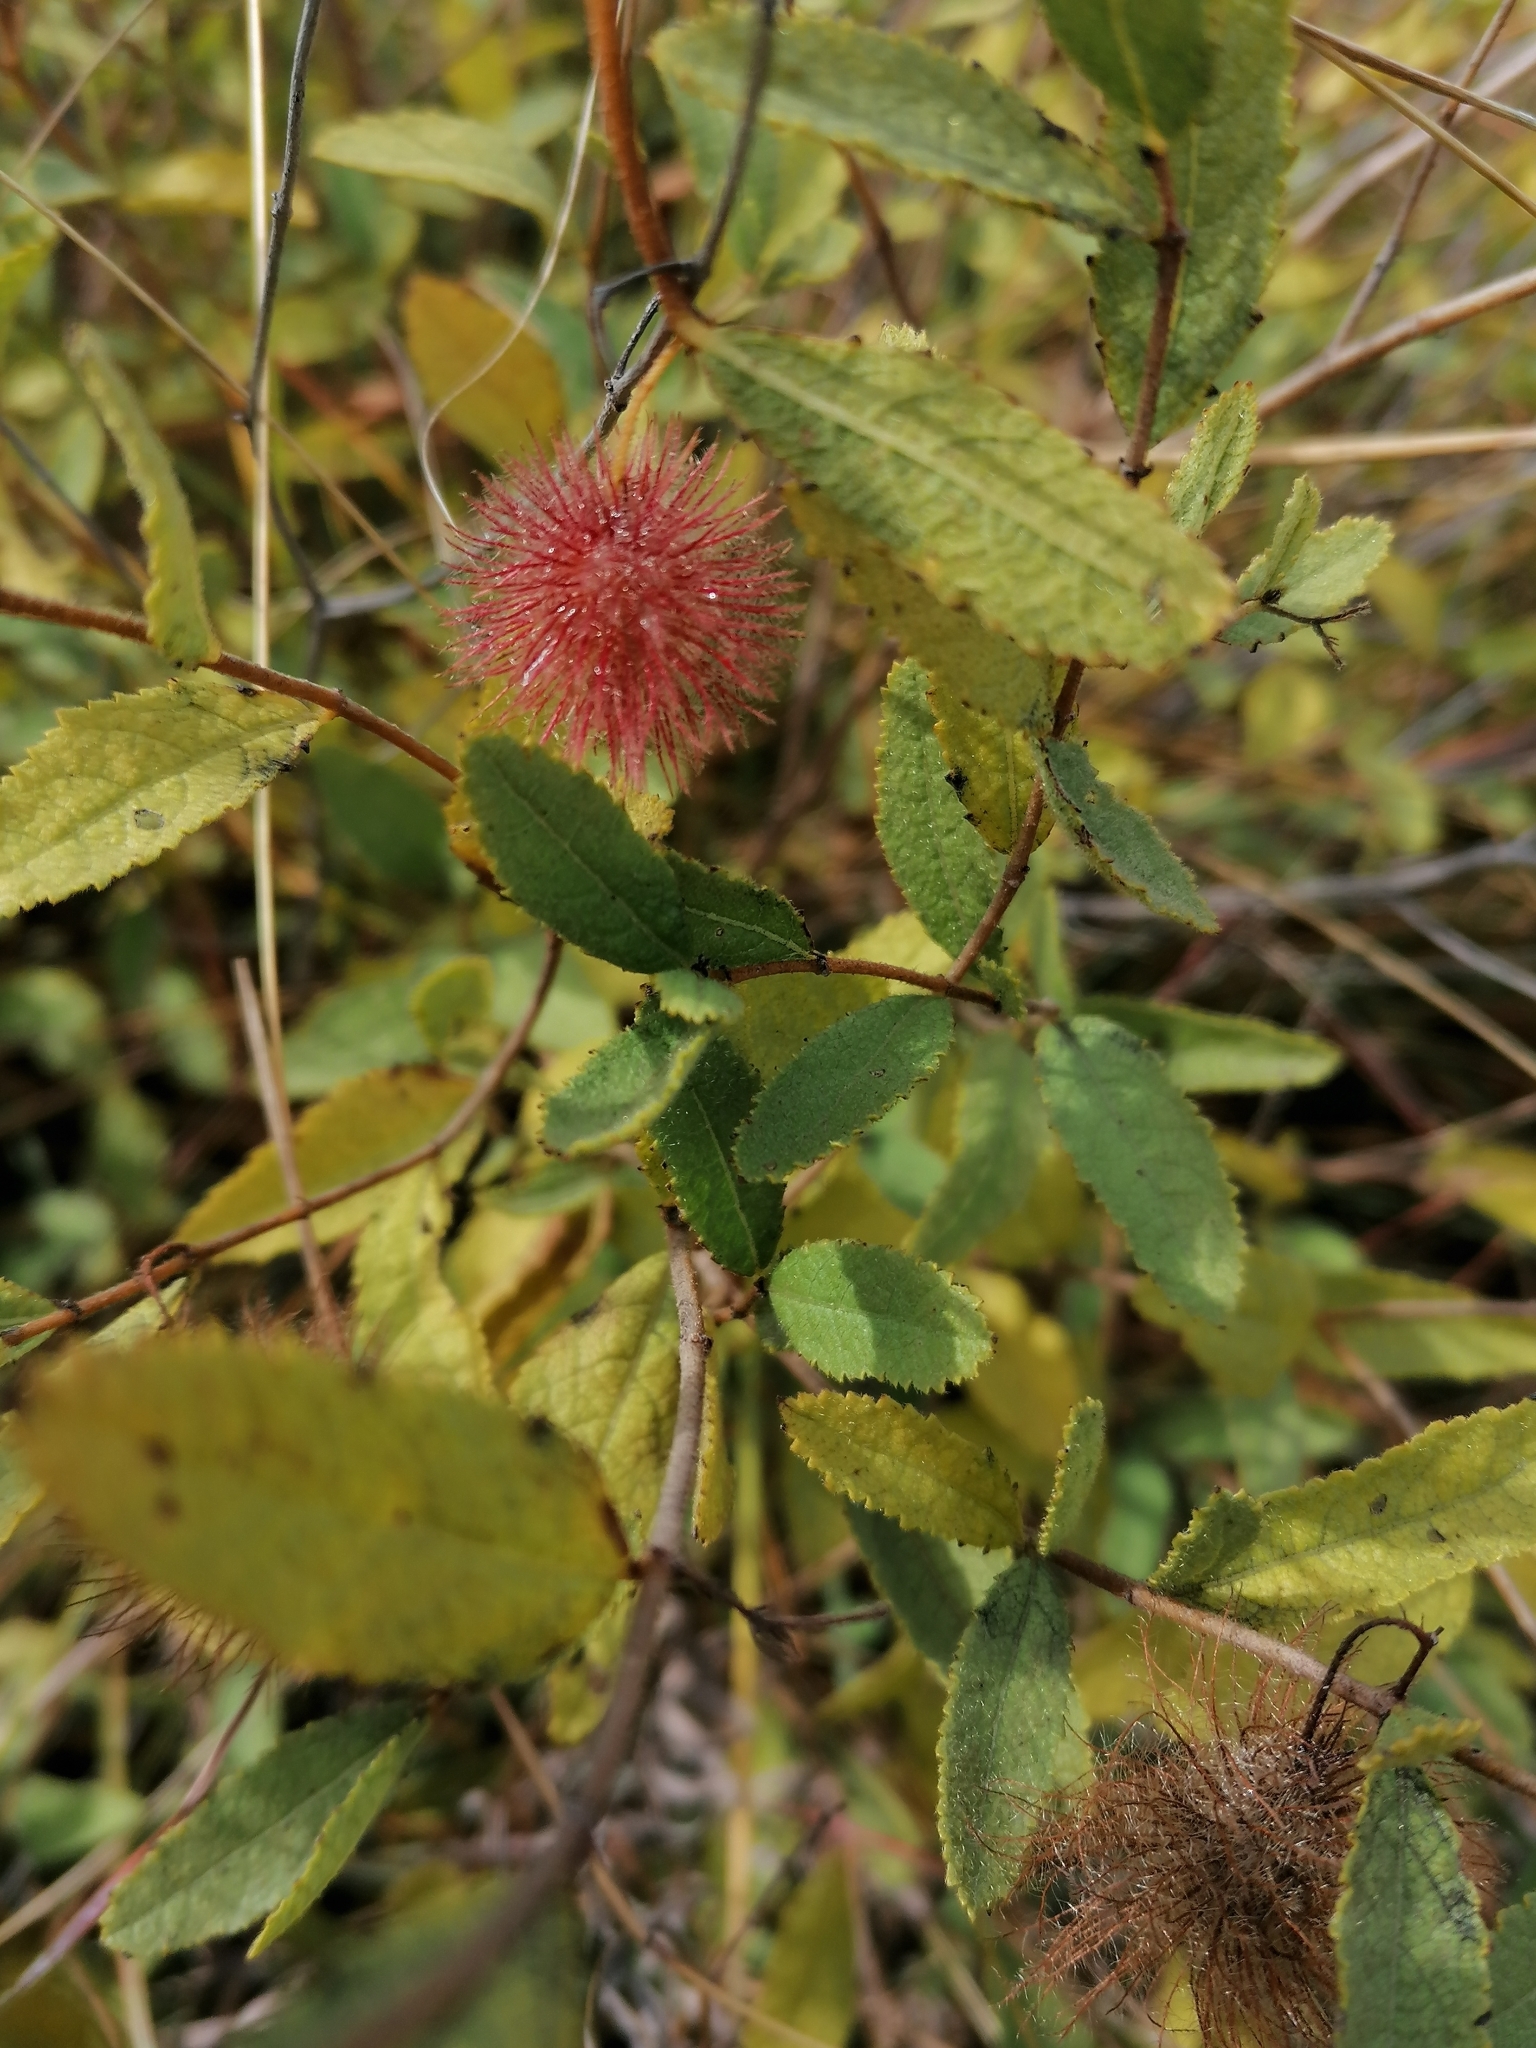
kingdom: Plantae
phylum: Tracheophyta
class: Magnoliopsida
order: Malvales
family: Malvaceae
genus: Triumfetta
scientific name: Triumfetta sonderi
